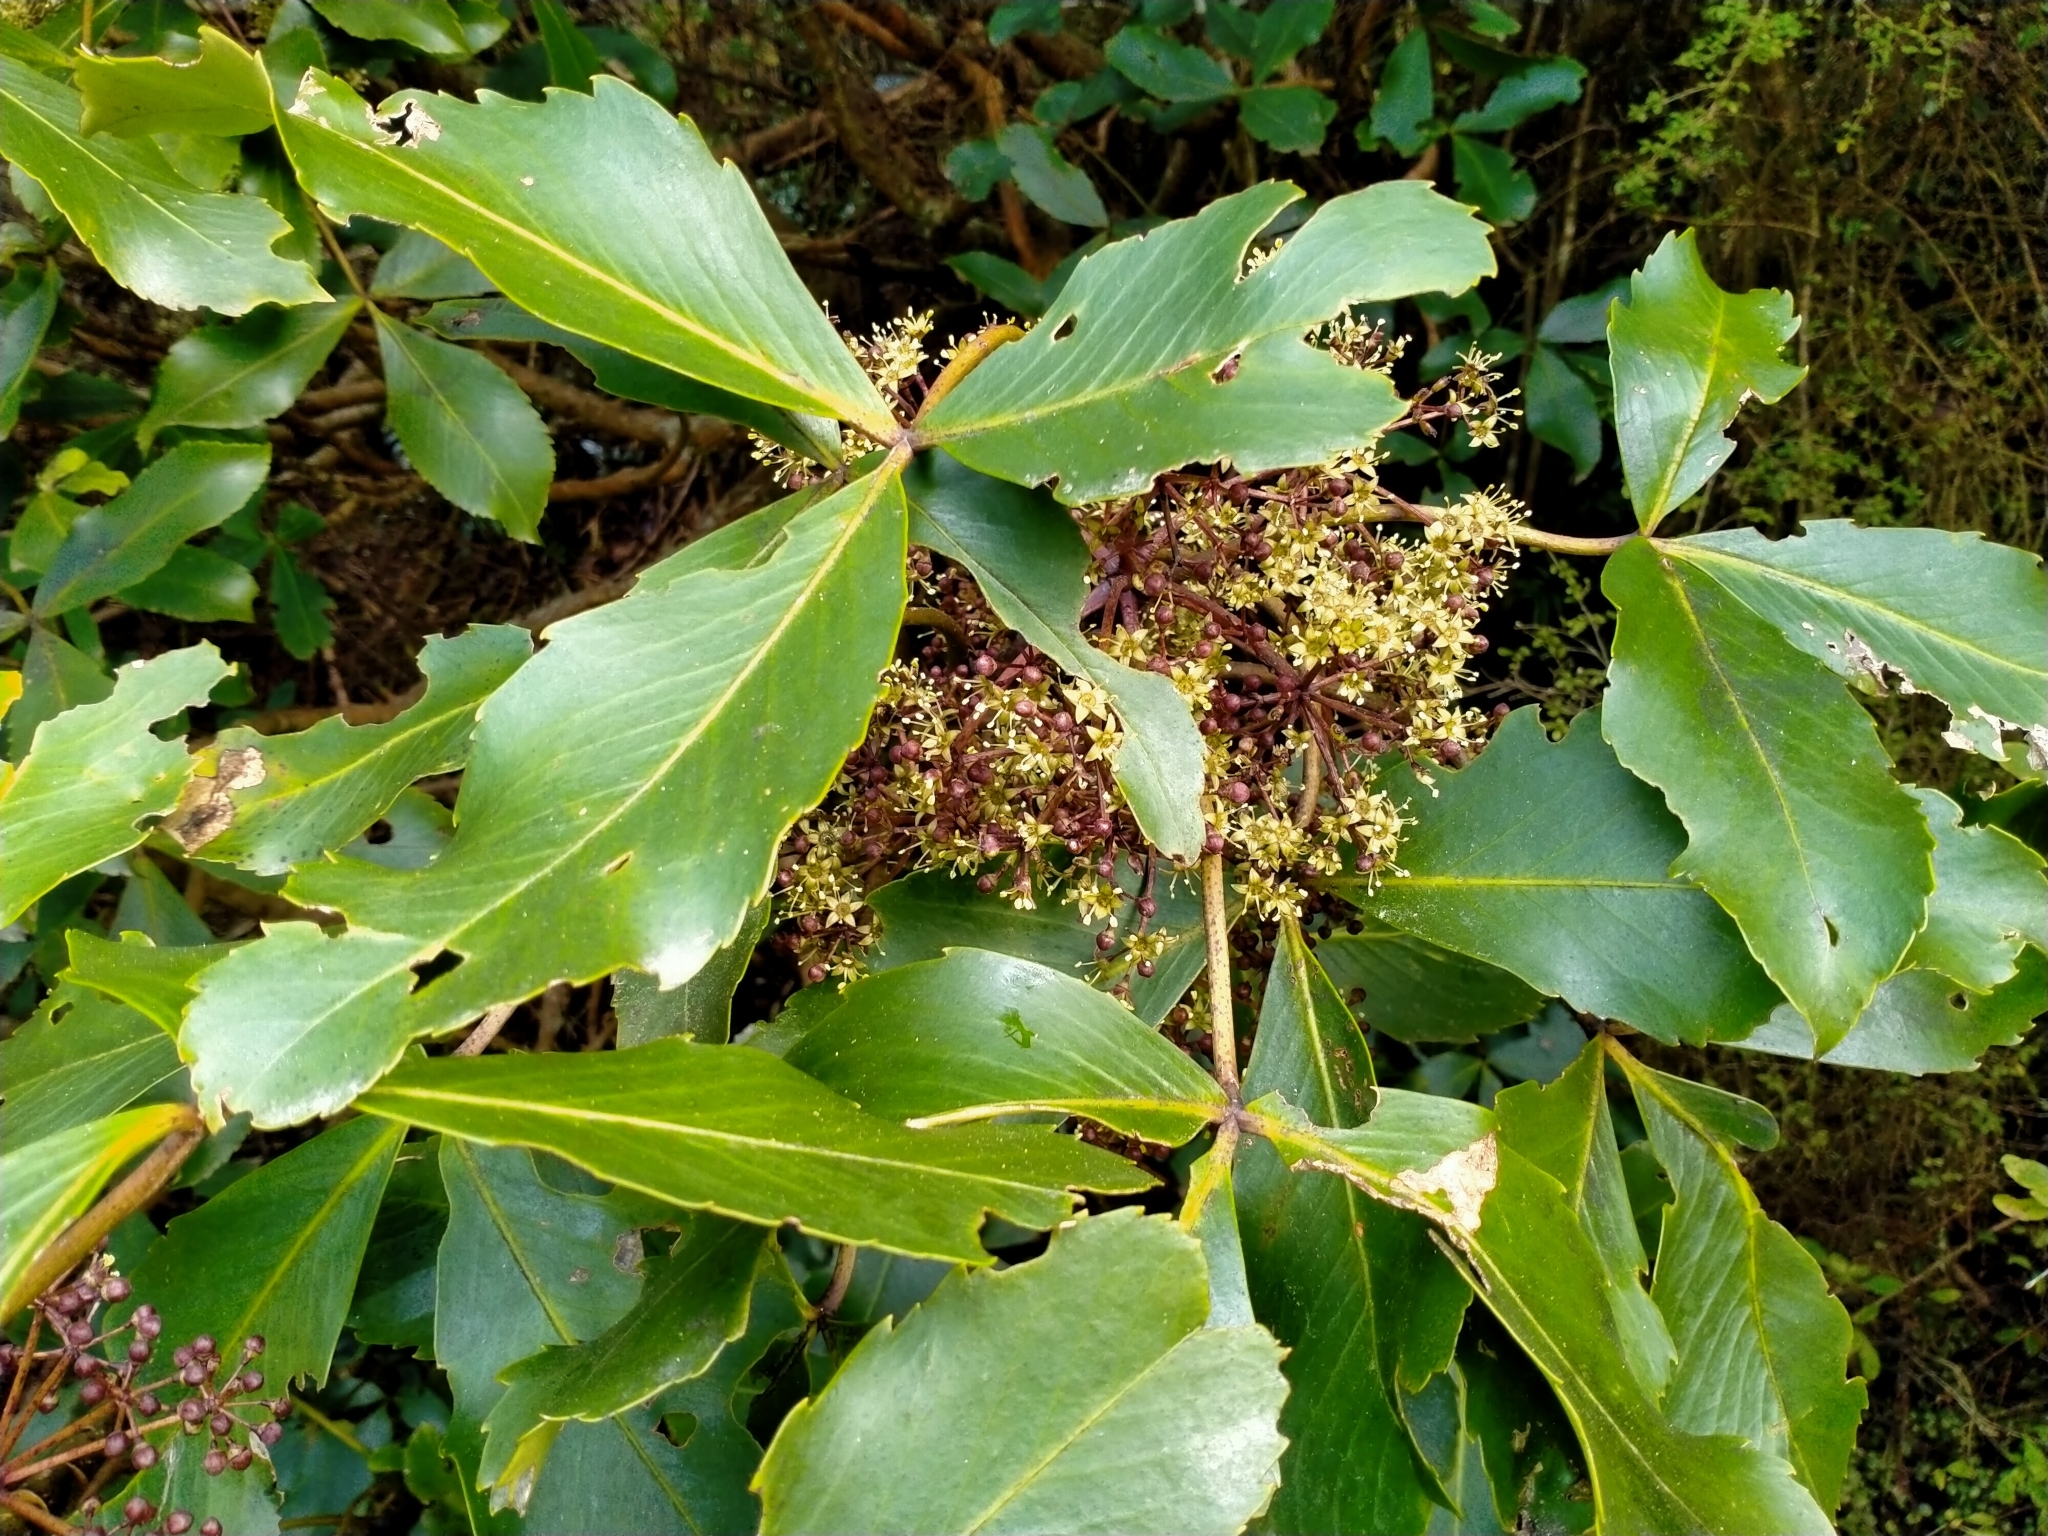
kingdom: Plantae
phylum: Tracheophyta
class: Magnoliopsida
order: Apiales
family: Araliaceae
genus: Neopanax
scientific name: Neopanax colensoi
